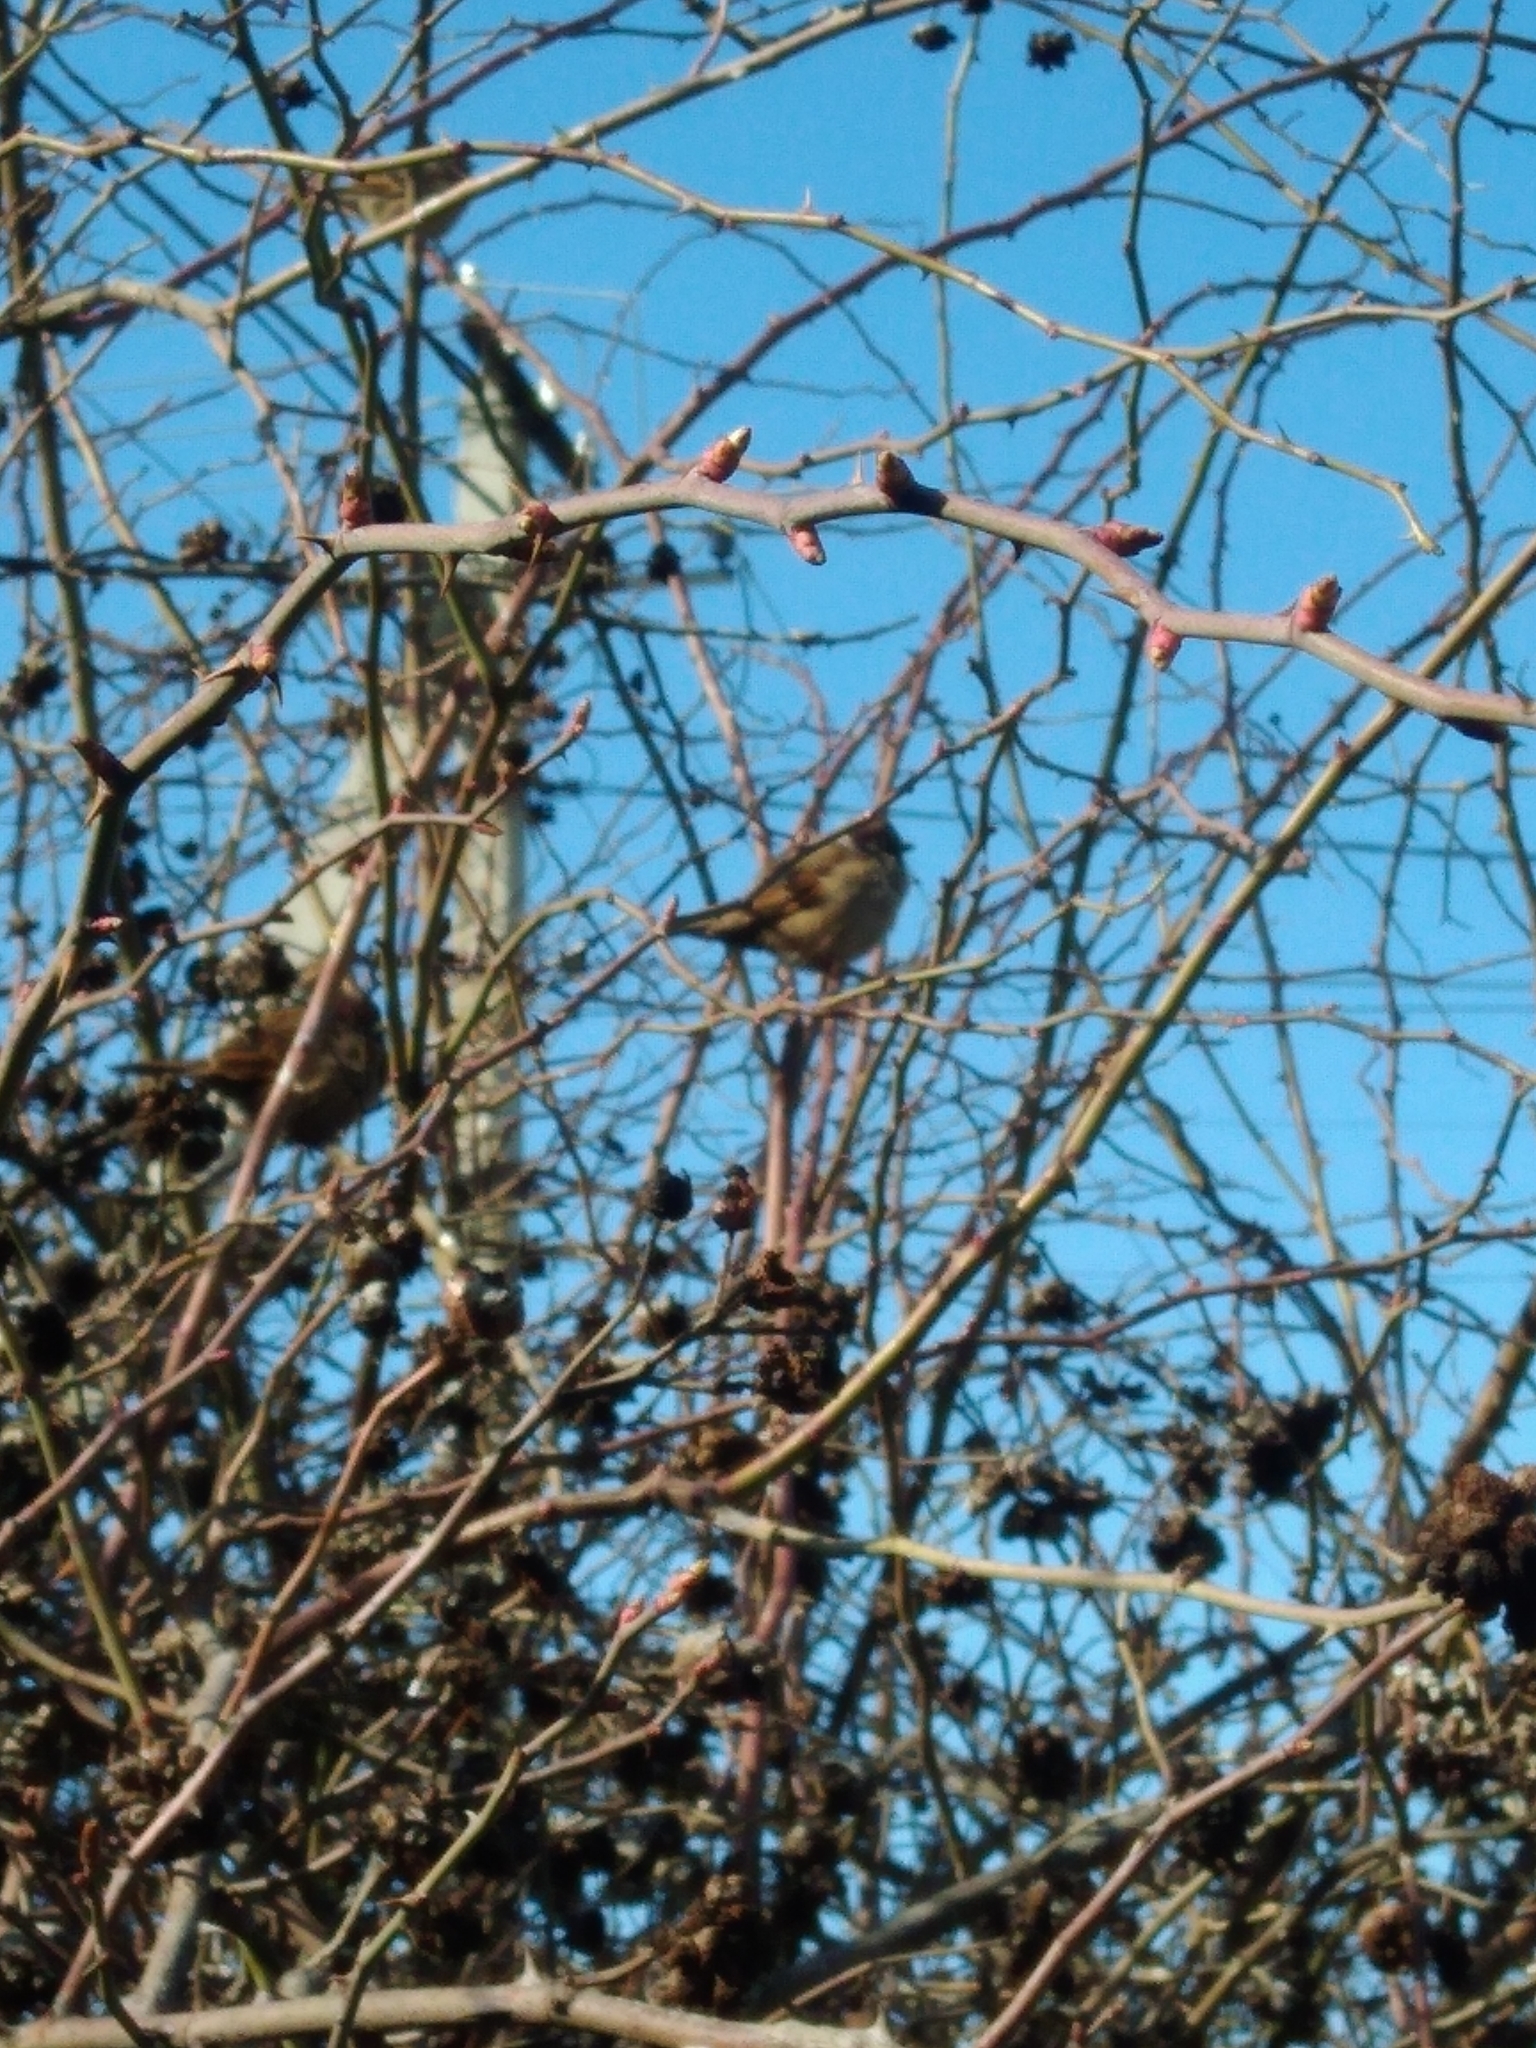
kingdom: Animalia
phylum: Chordata
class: Aves
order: Passeriformes
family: Passeridae
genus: Passer
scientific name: Passer montanus
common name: Eurasian tree sparrow
